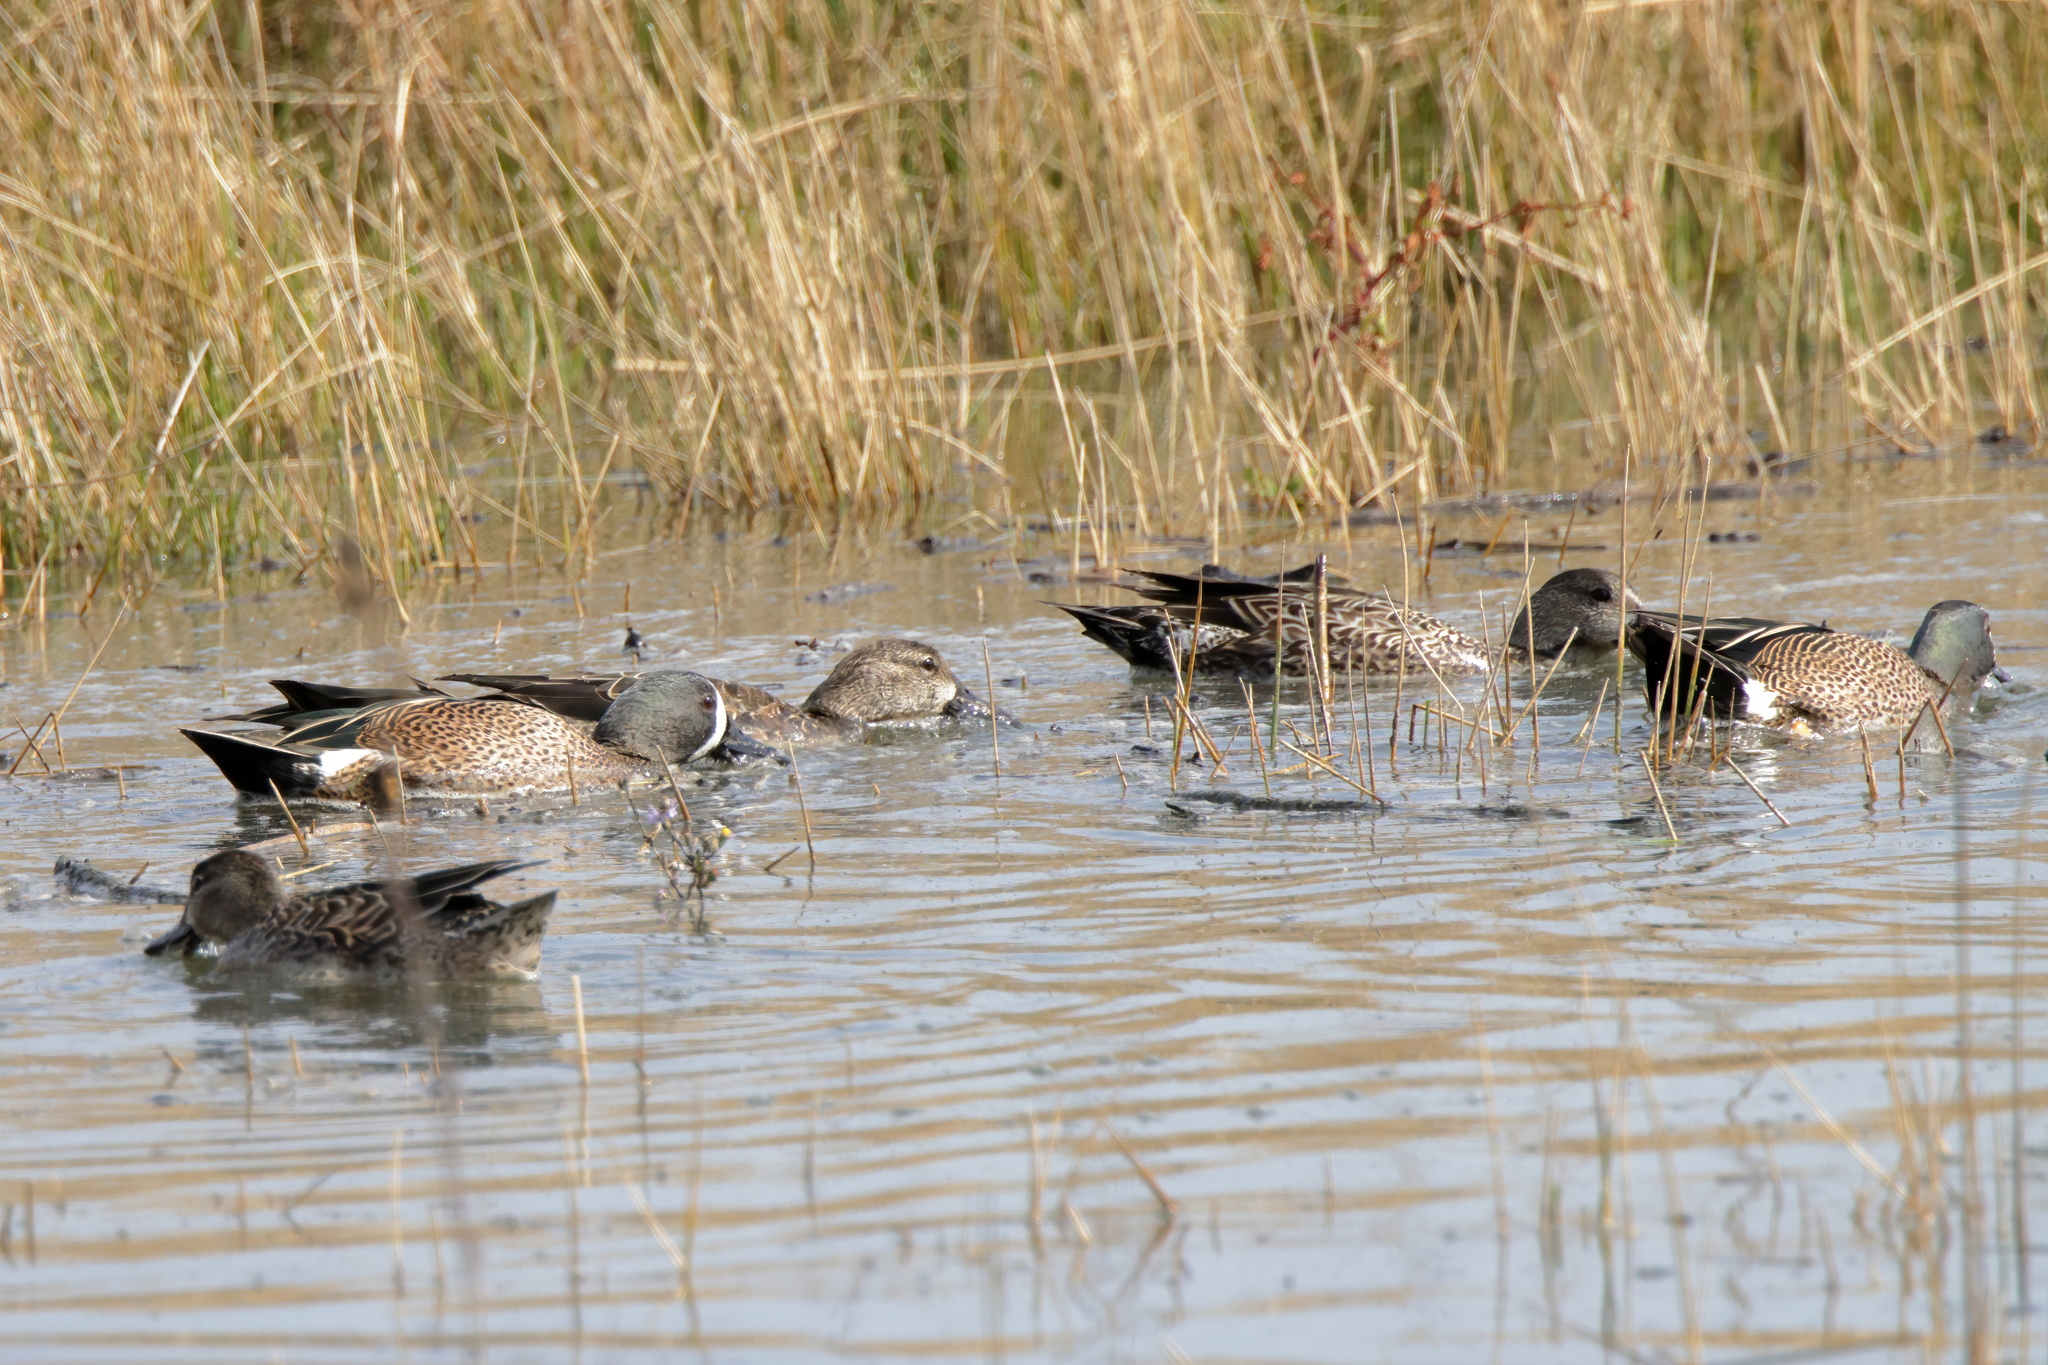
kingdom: Animalia
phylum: Chordata
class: Aves
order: Anseriformes
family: Anatidae
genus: Spatula
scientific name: Spatula discors
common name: Blue-winged teal
